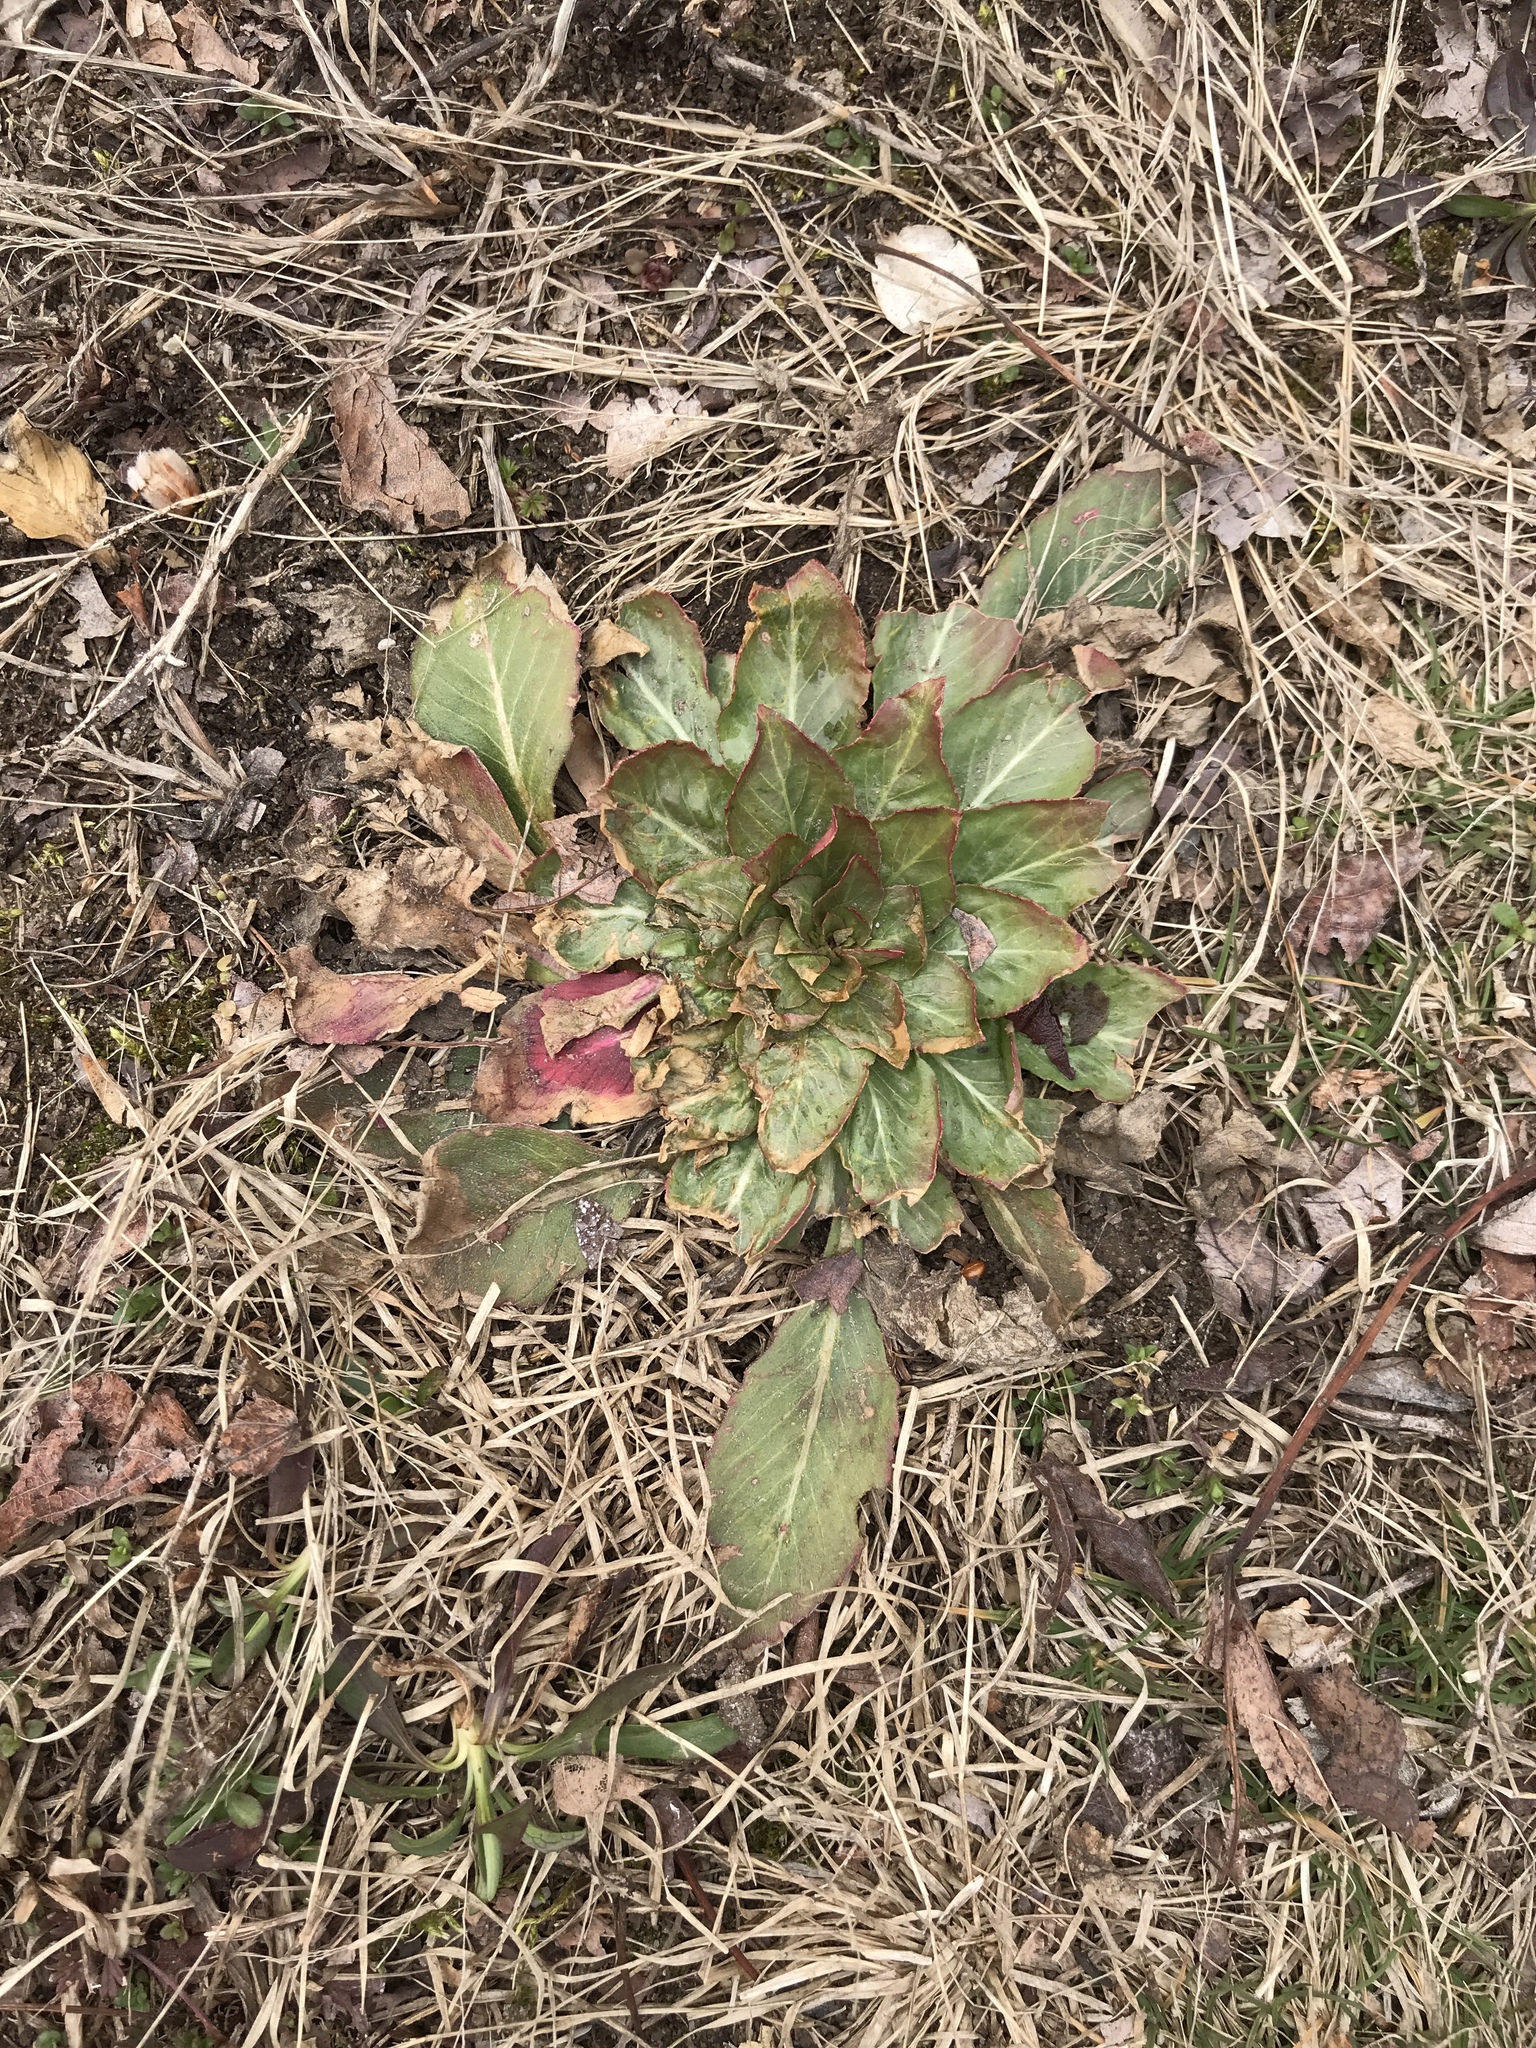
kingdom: Plantae
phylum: Tracheophyta
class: Magnoliopsida
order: Myrtales
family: Onagraceae
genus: Oenothera
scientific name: Oenothera biennis
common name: Common evening-primrose
